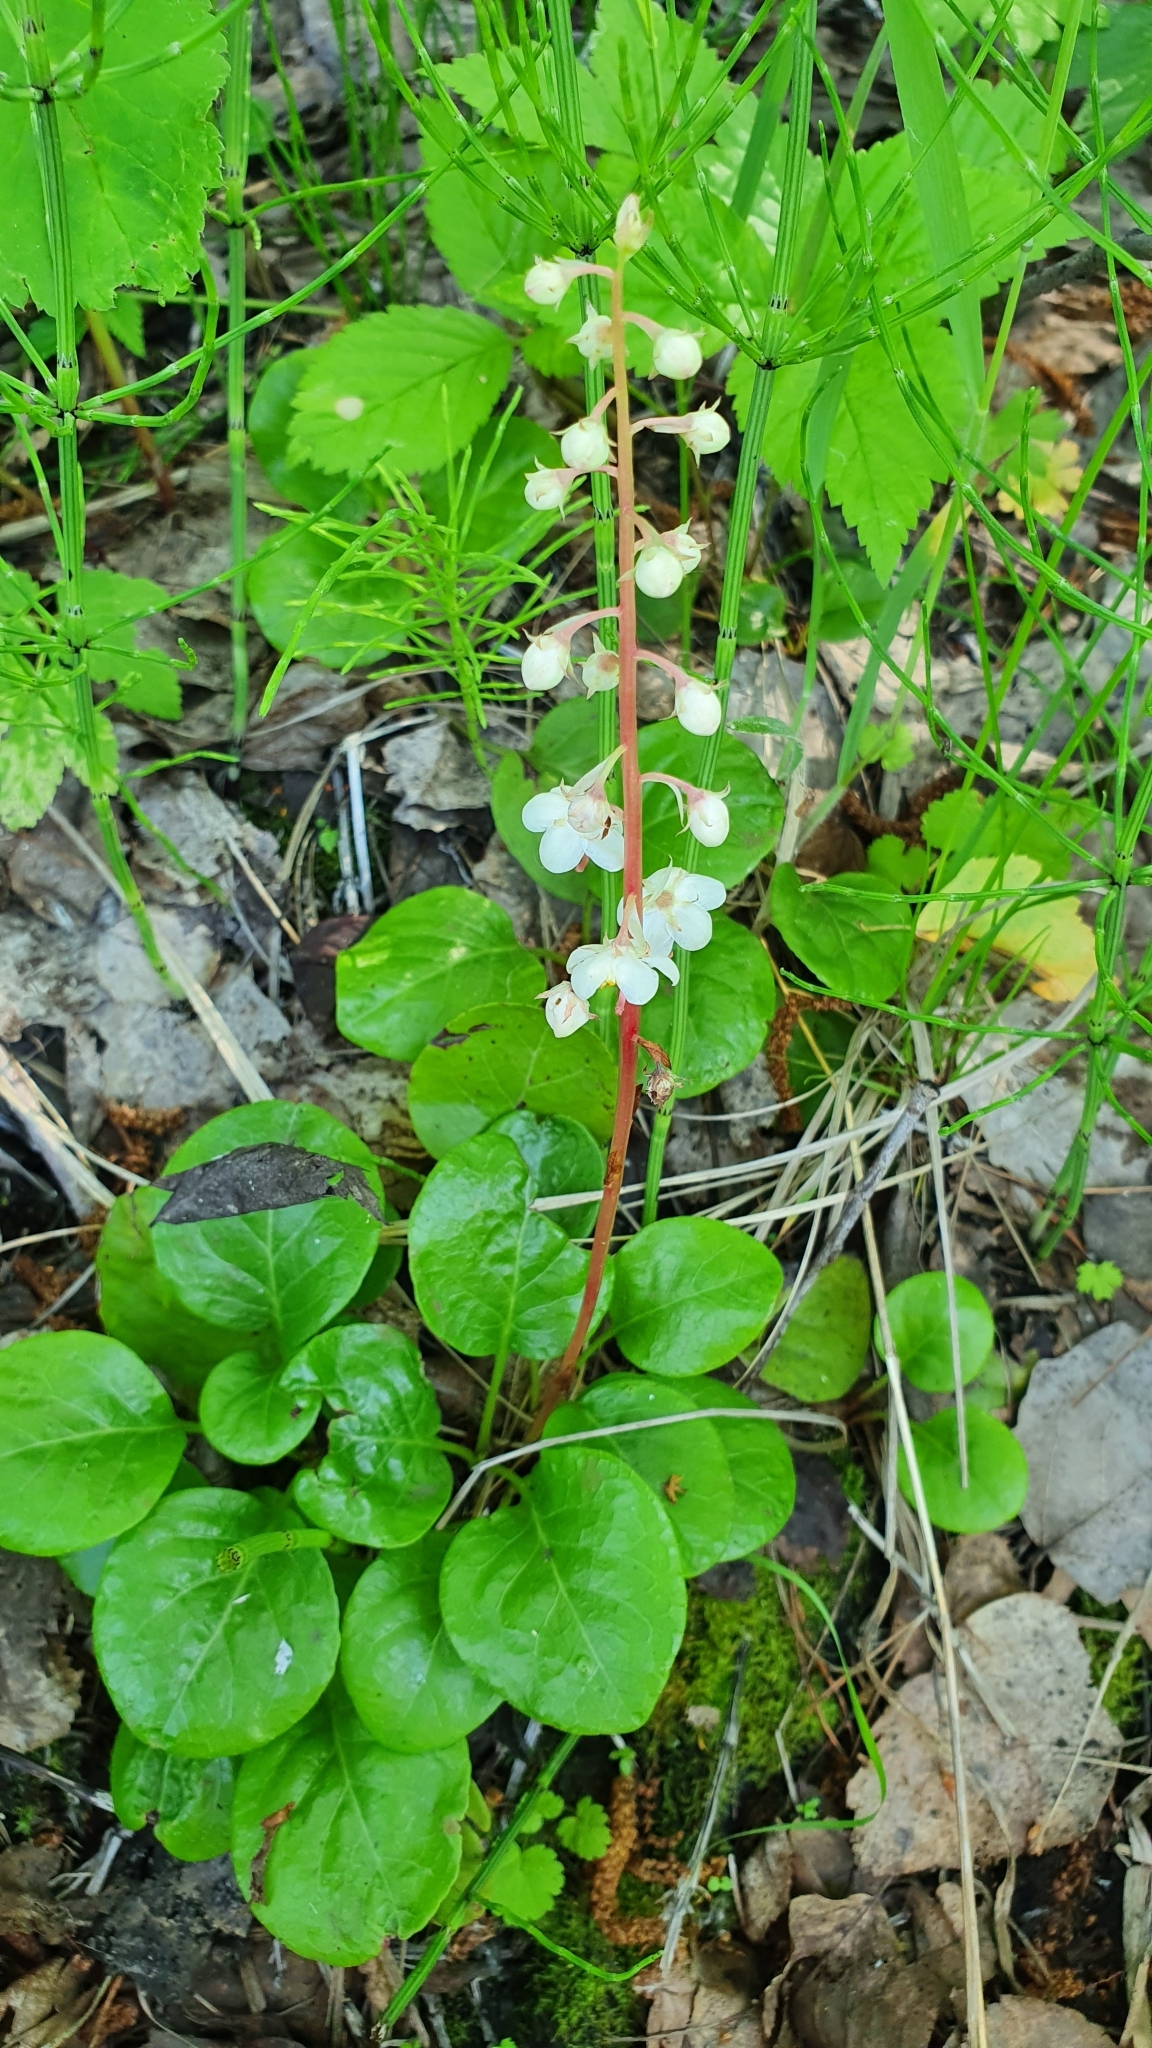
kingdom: Plantae
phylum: Tracheophyta
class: Magnoliopsida
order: Ericales
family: Ericaceae
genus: Pyrola
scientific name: Pyrola rotundifolia
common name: Round-leaved wintergreen
